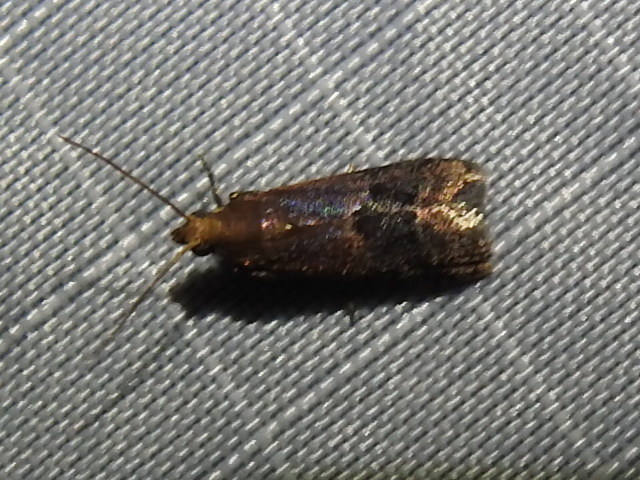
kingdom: Animalia
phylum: Arthropoda
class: Insecta
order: Lepidoptera
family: Pyralidae
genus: Eulogia
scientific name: Eulogia ochrifrontella
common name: Broad-banded eulogia moth
